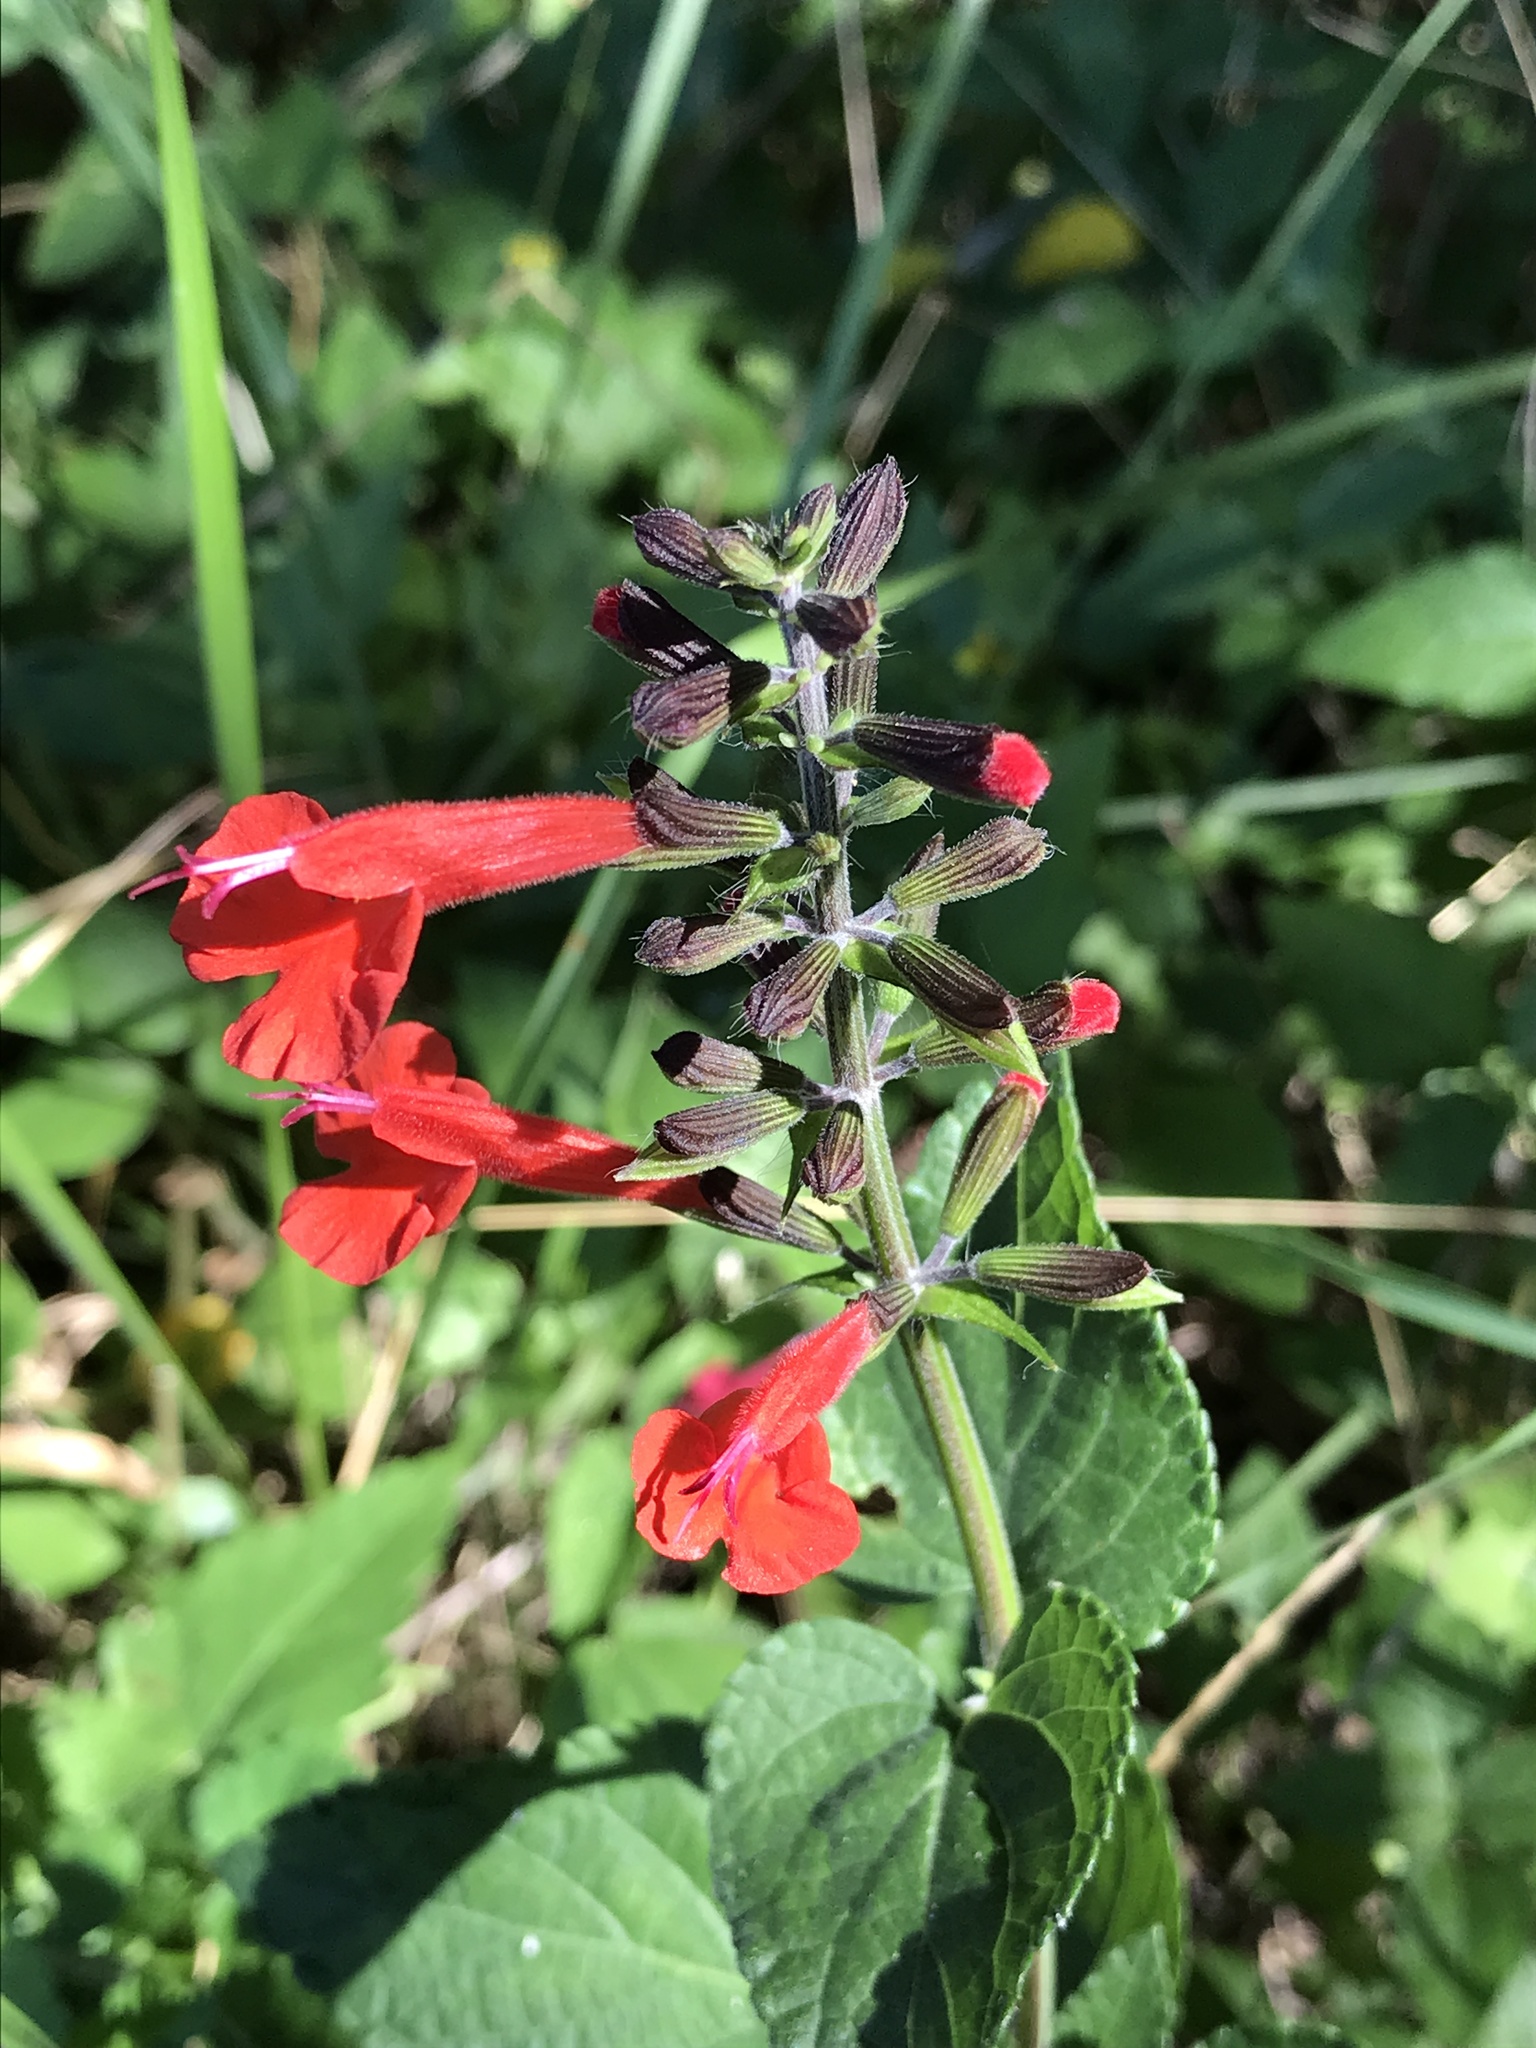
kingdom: Plantae
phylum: Tracheophyta
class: Magnoliopsida
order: Lamiales
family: Lamiaceae
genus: Salvia
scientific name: Salvia coccinea
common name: Blood sage
